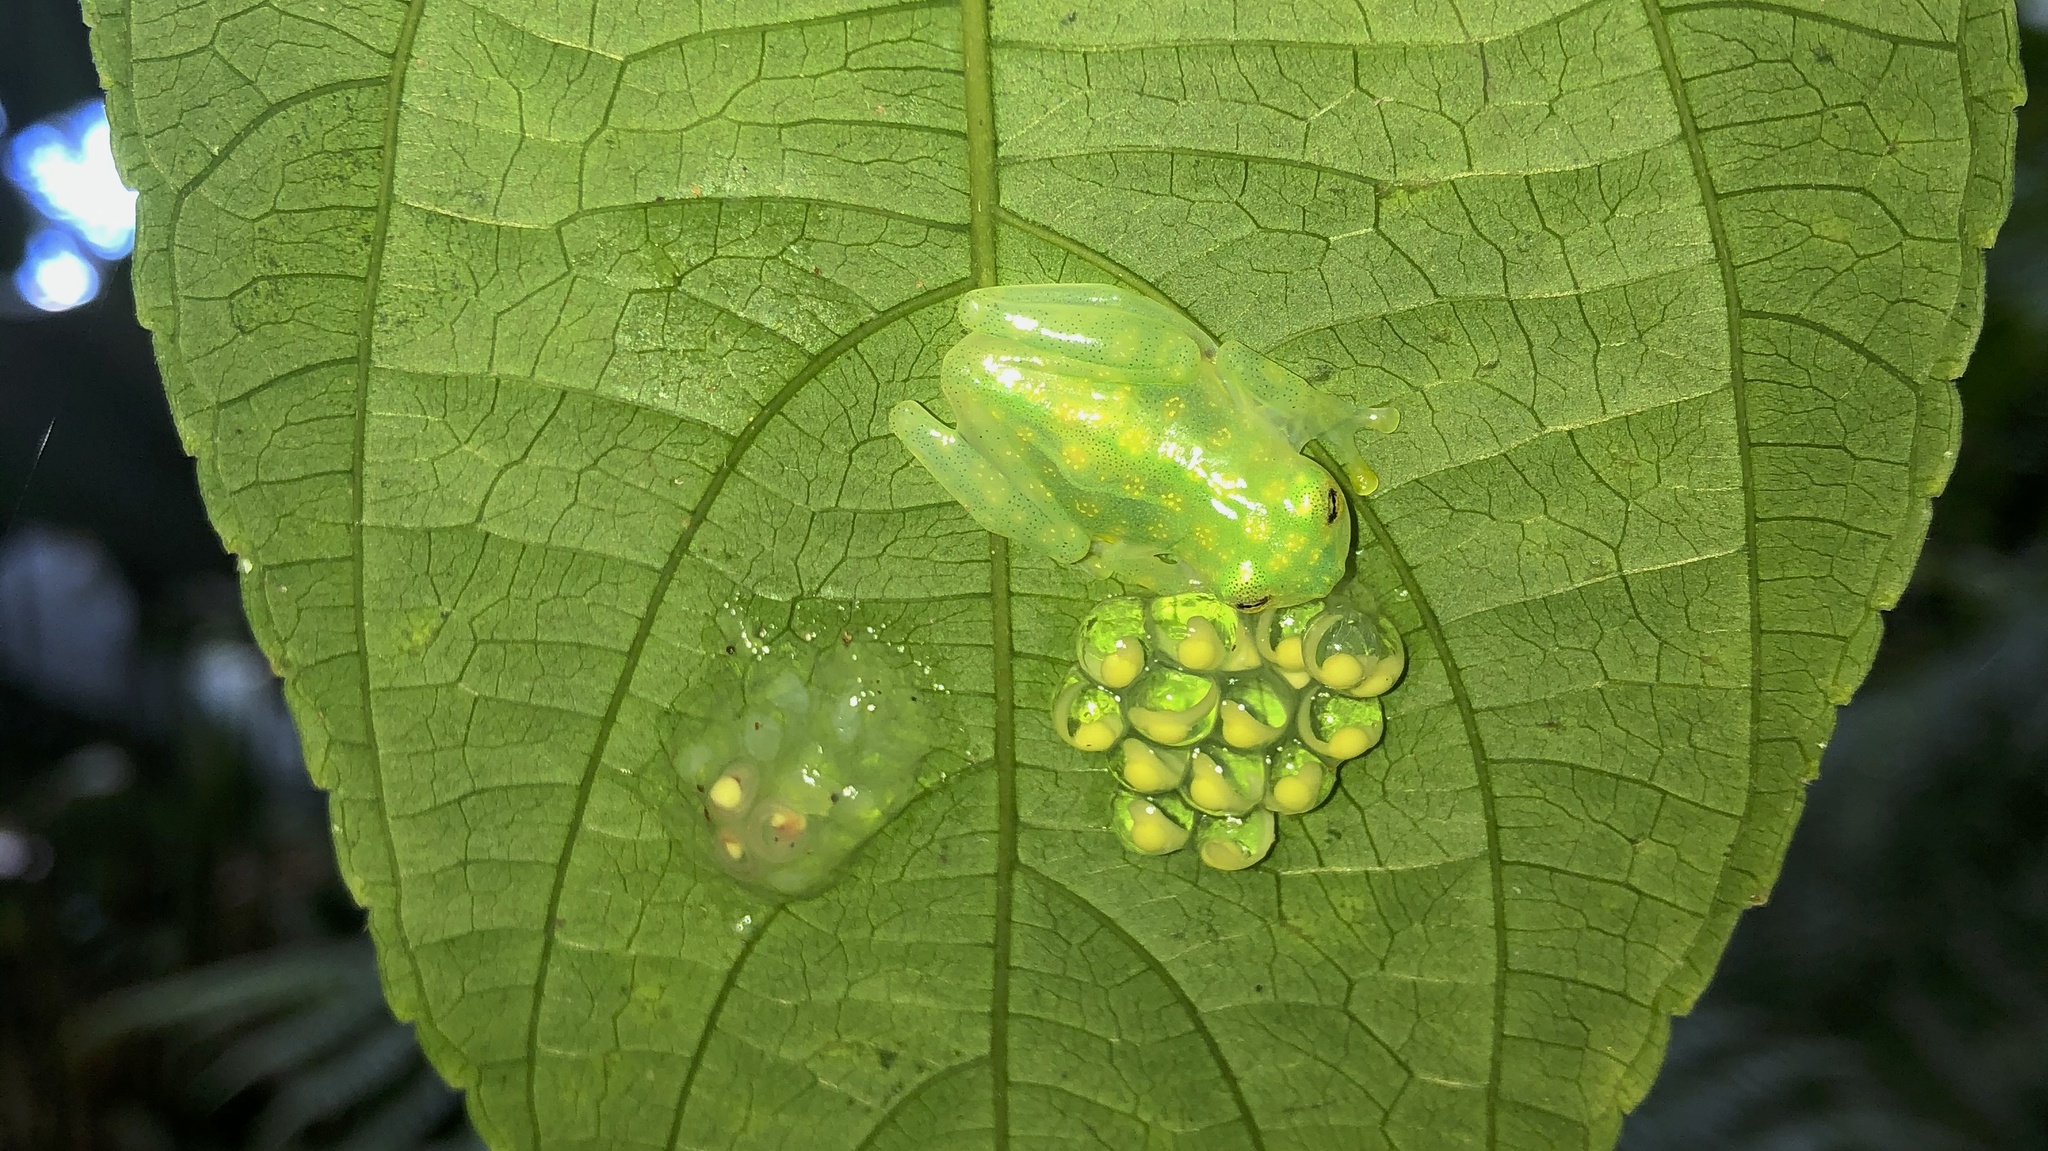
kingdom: Animalia
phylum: Chordata
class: Amphibia
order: Anura
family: Centrolenidae
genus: Hyalinobatrachium
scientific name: Hyalinobatrachium valerioi
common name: Reticulated glass frog
